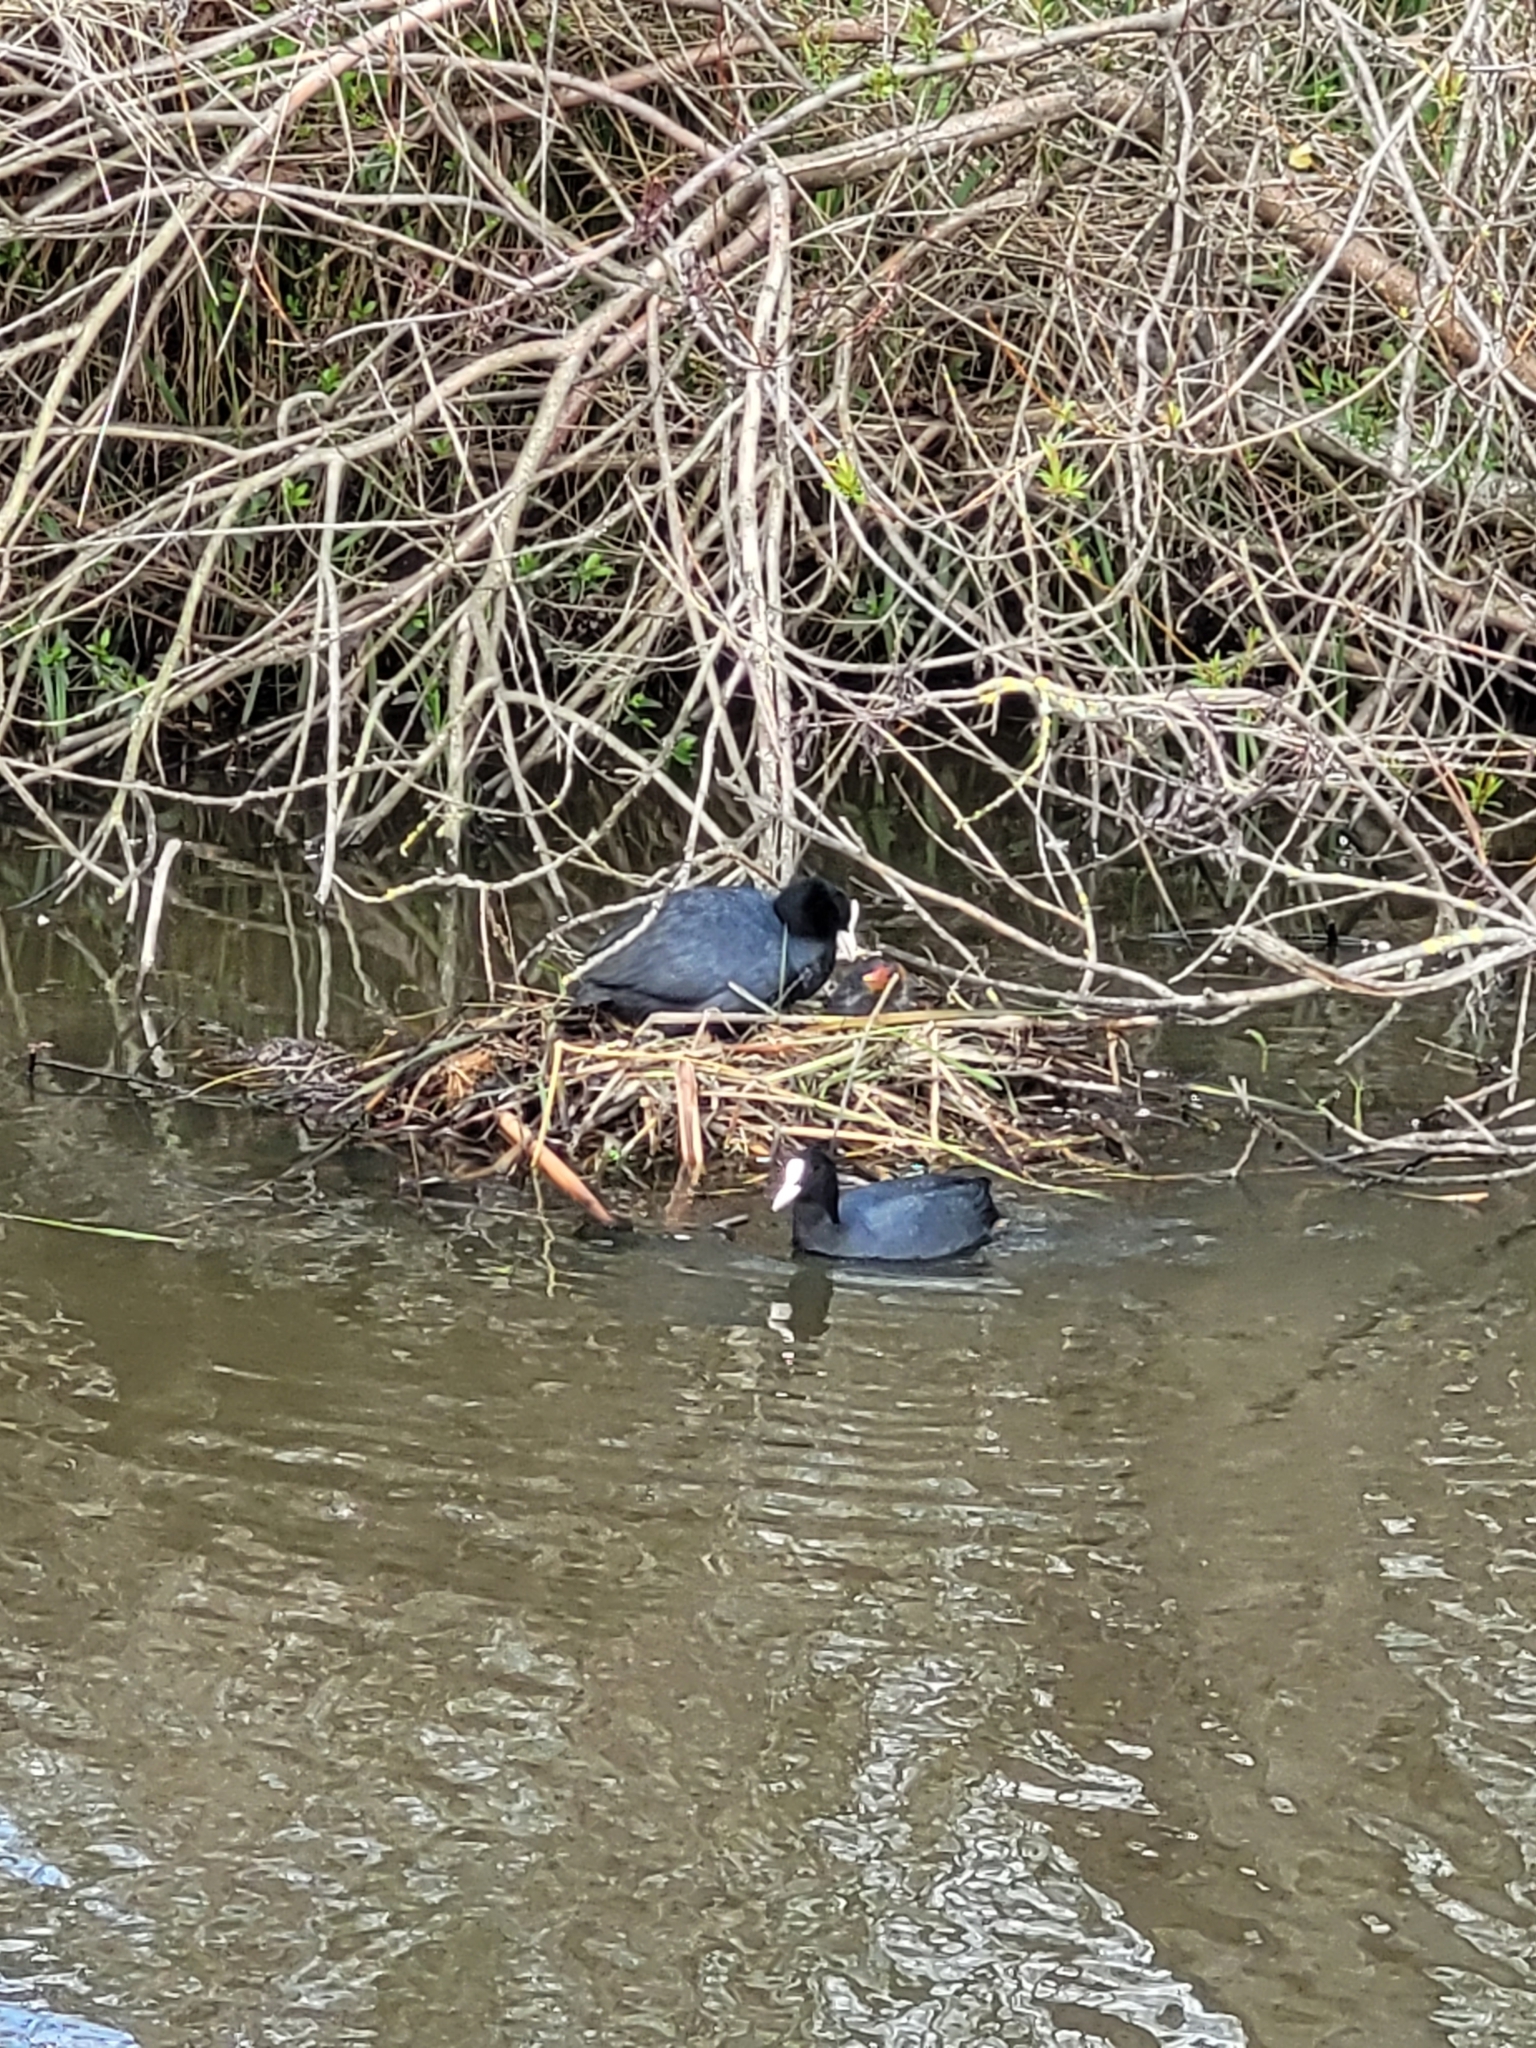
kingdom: Animalia
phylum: Chordata
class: Aves
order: Gruiformes
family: Rallidae
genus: Fulica
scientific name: Fulica atra
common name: Eurasian coot
